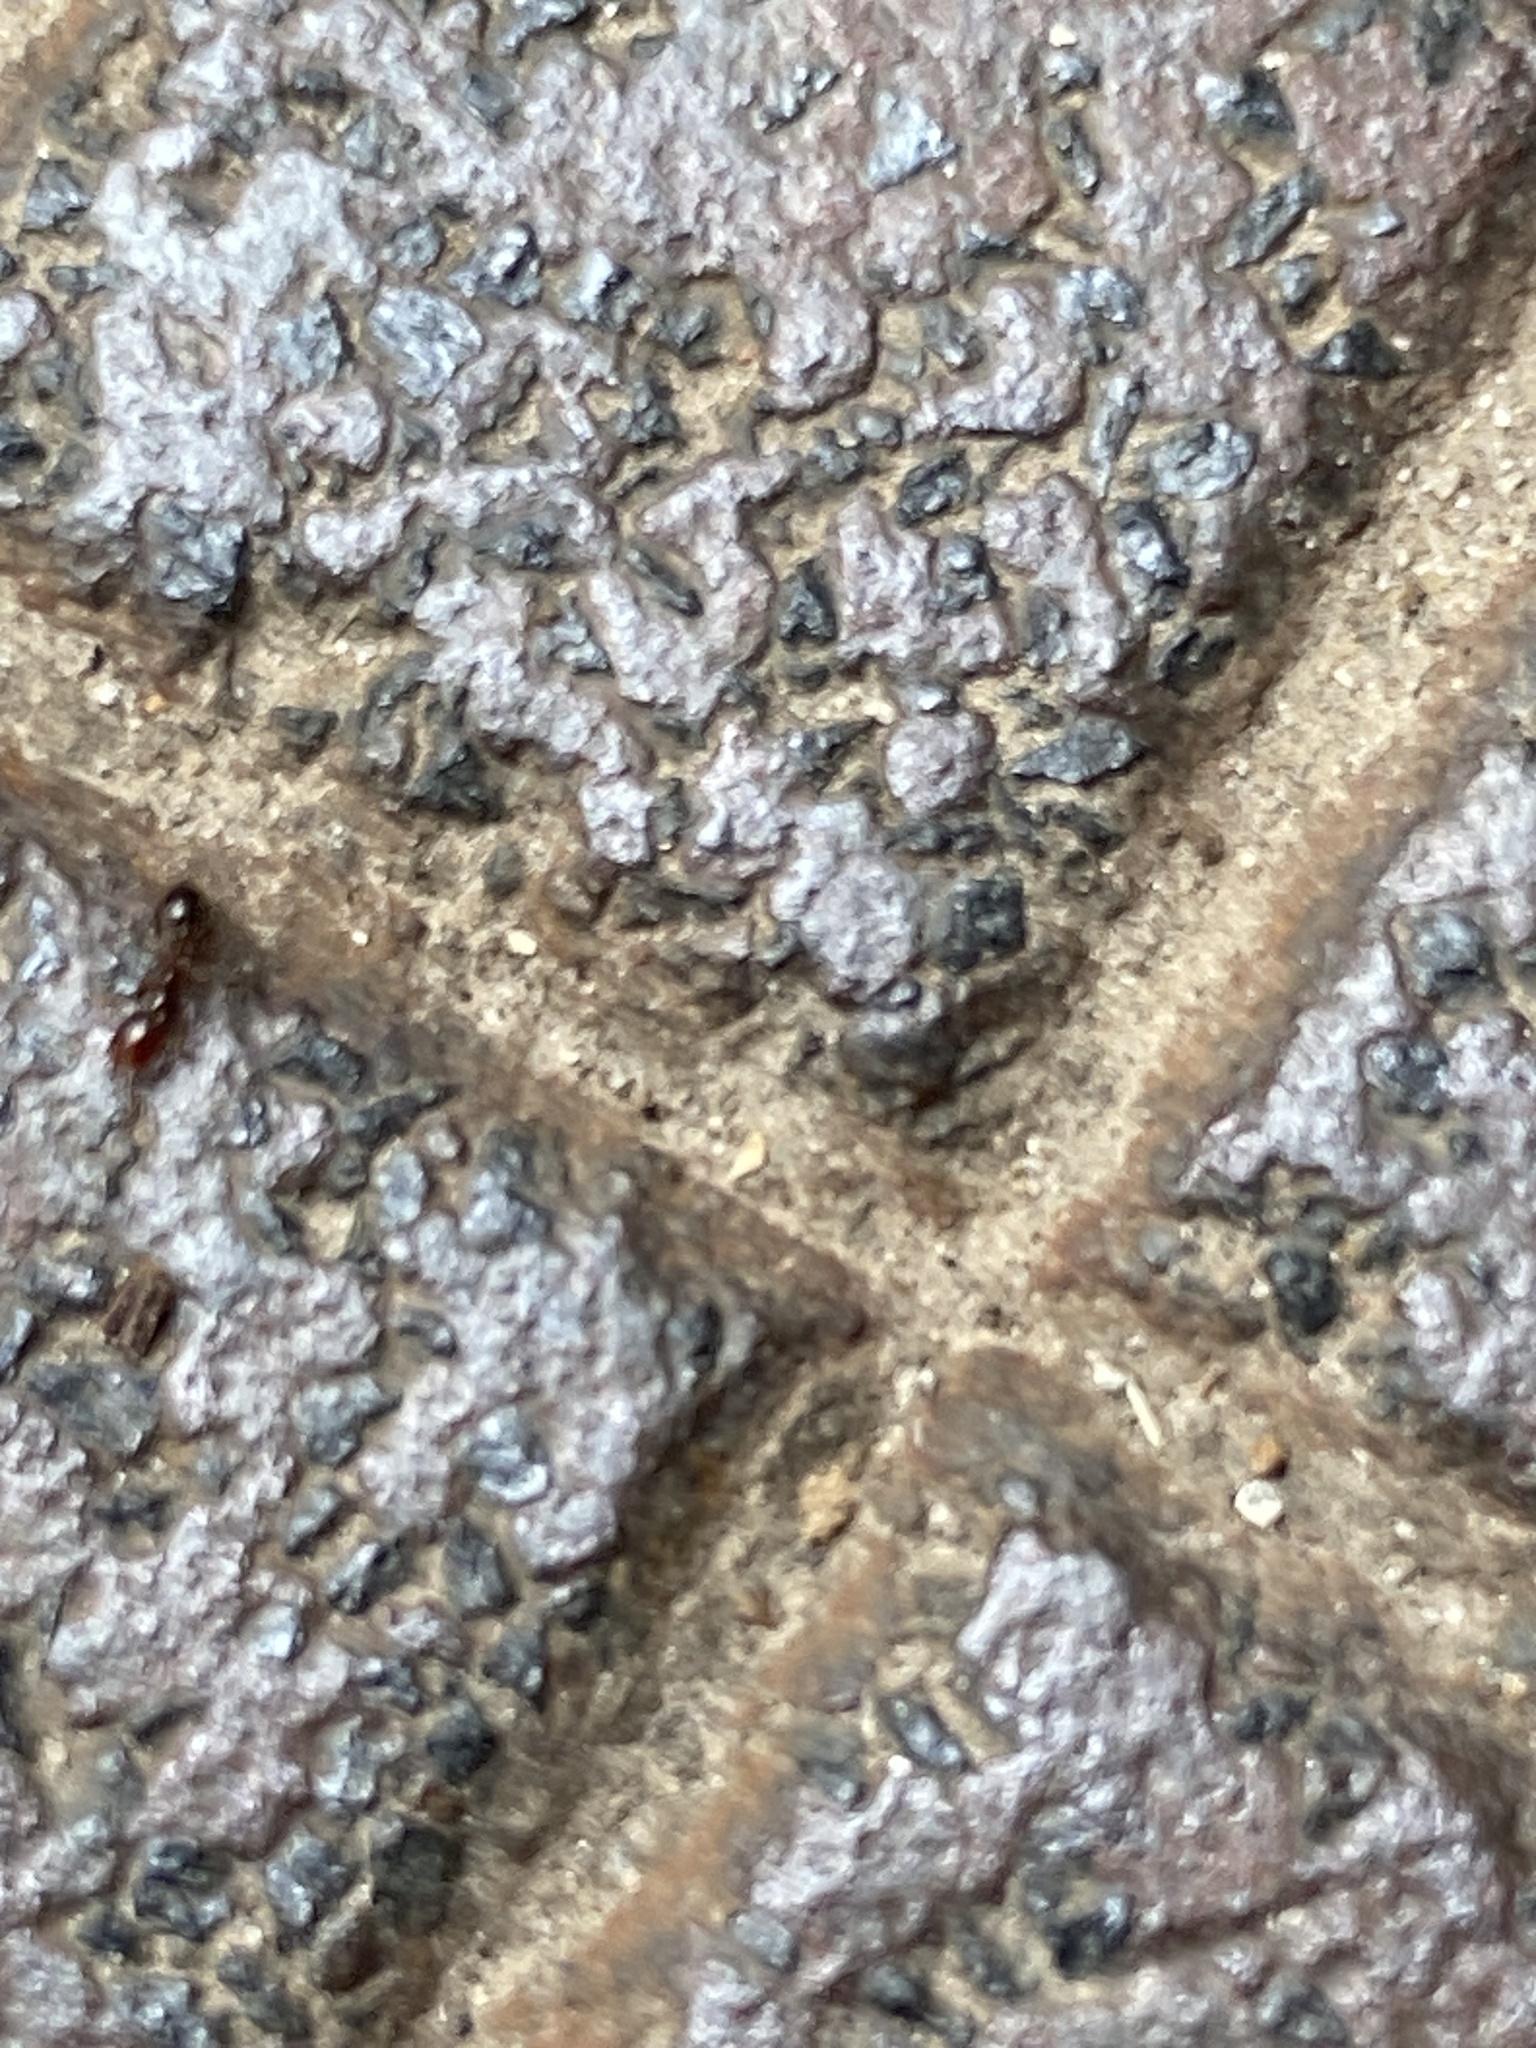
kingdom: Animalia
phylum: Arthropoda
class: Insecta
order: Hymenoptera
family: Formicidae
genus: Solenopsis
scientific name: Solenopsis invicta
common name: Red imported fire ant
